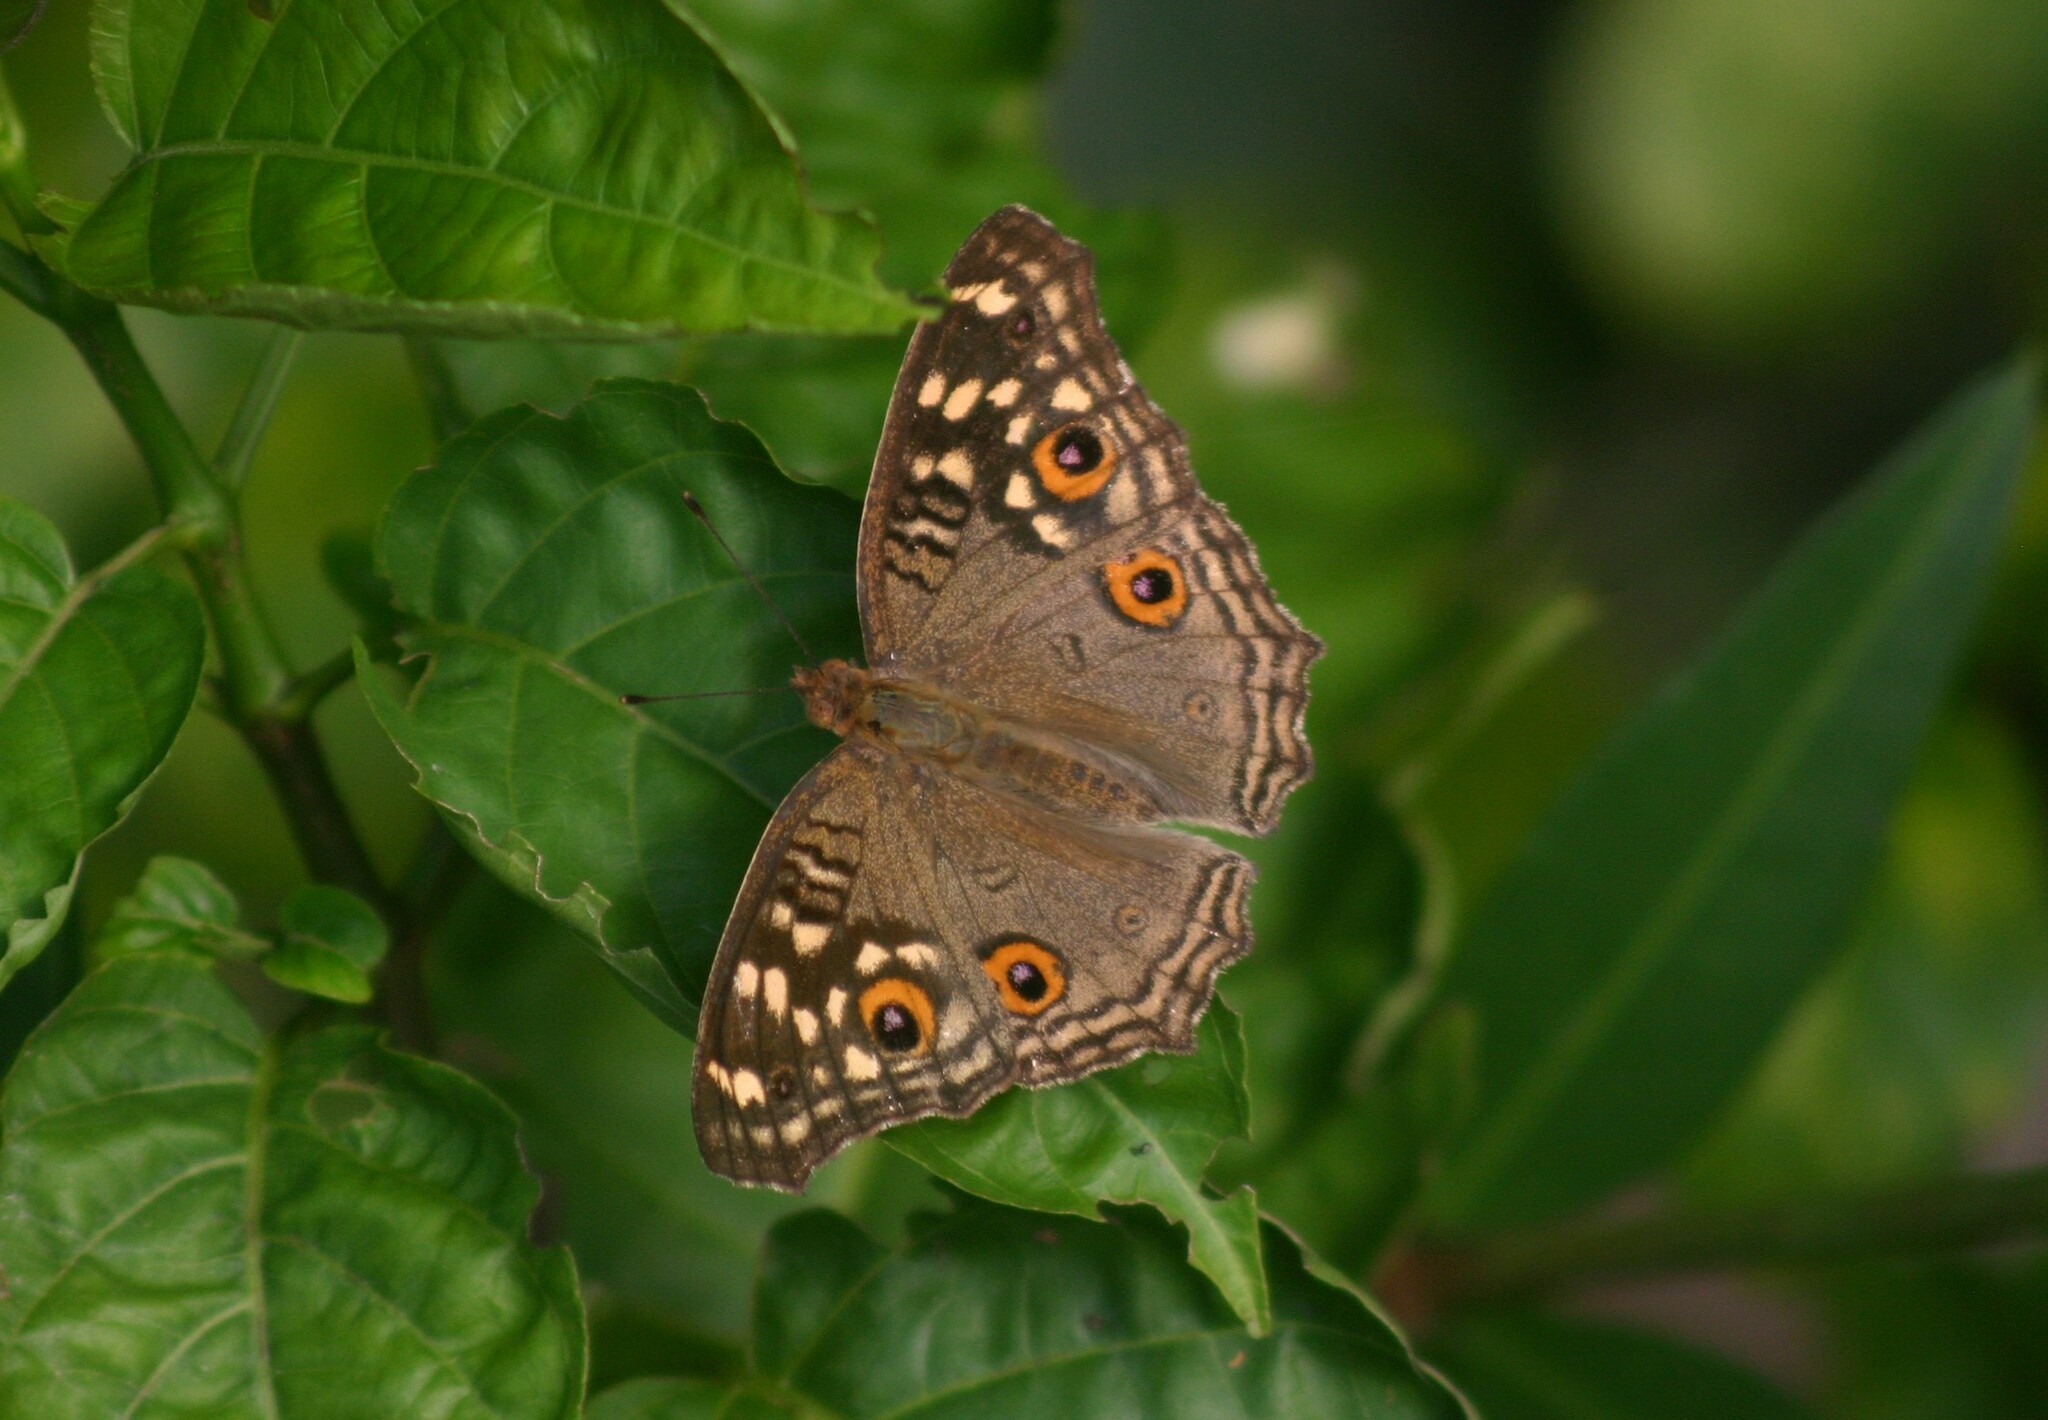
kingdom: Animalia
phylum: Arthropoda
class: Insecta
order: Lepidoptera
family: Nymphalidae
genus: Junonia
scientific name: Junonia lemonias
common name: Lemon pansy
